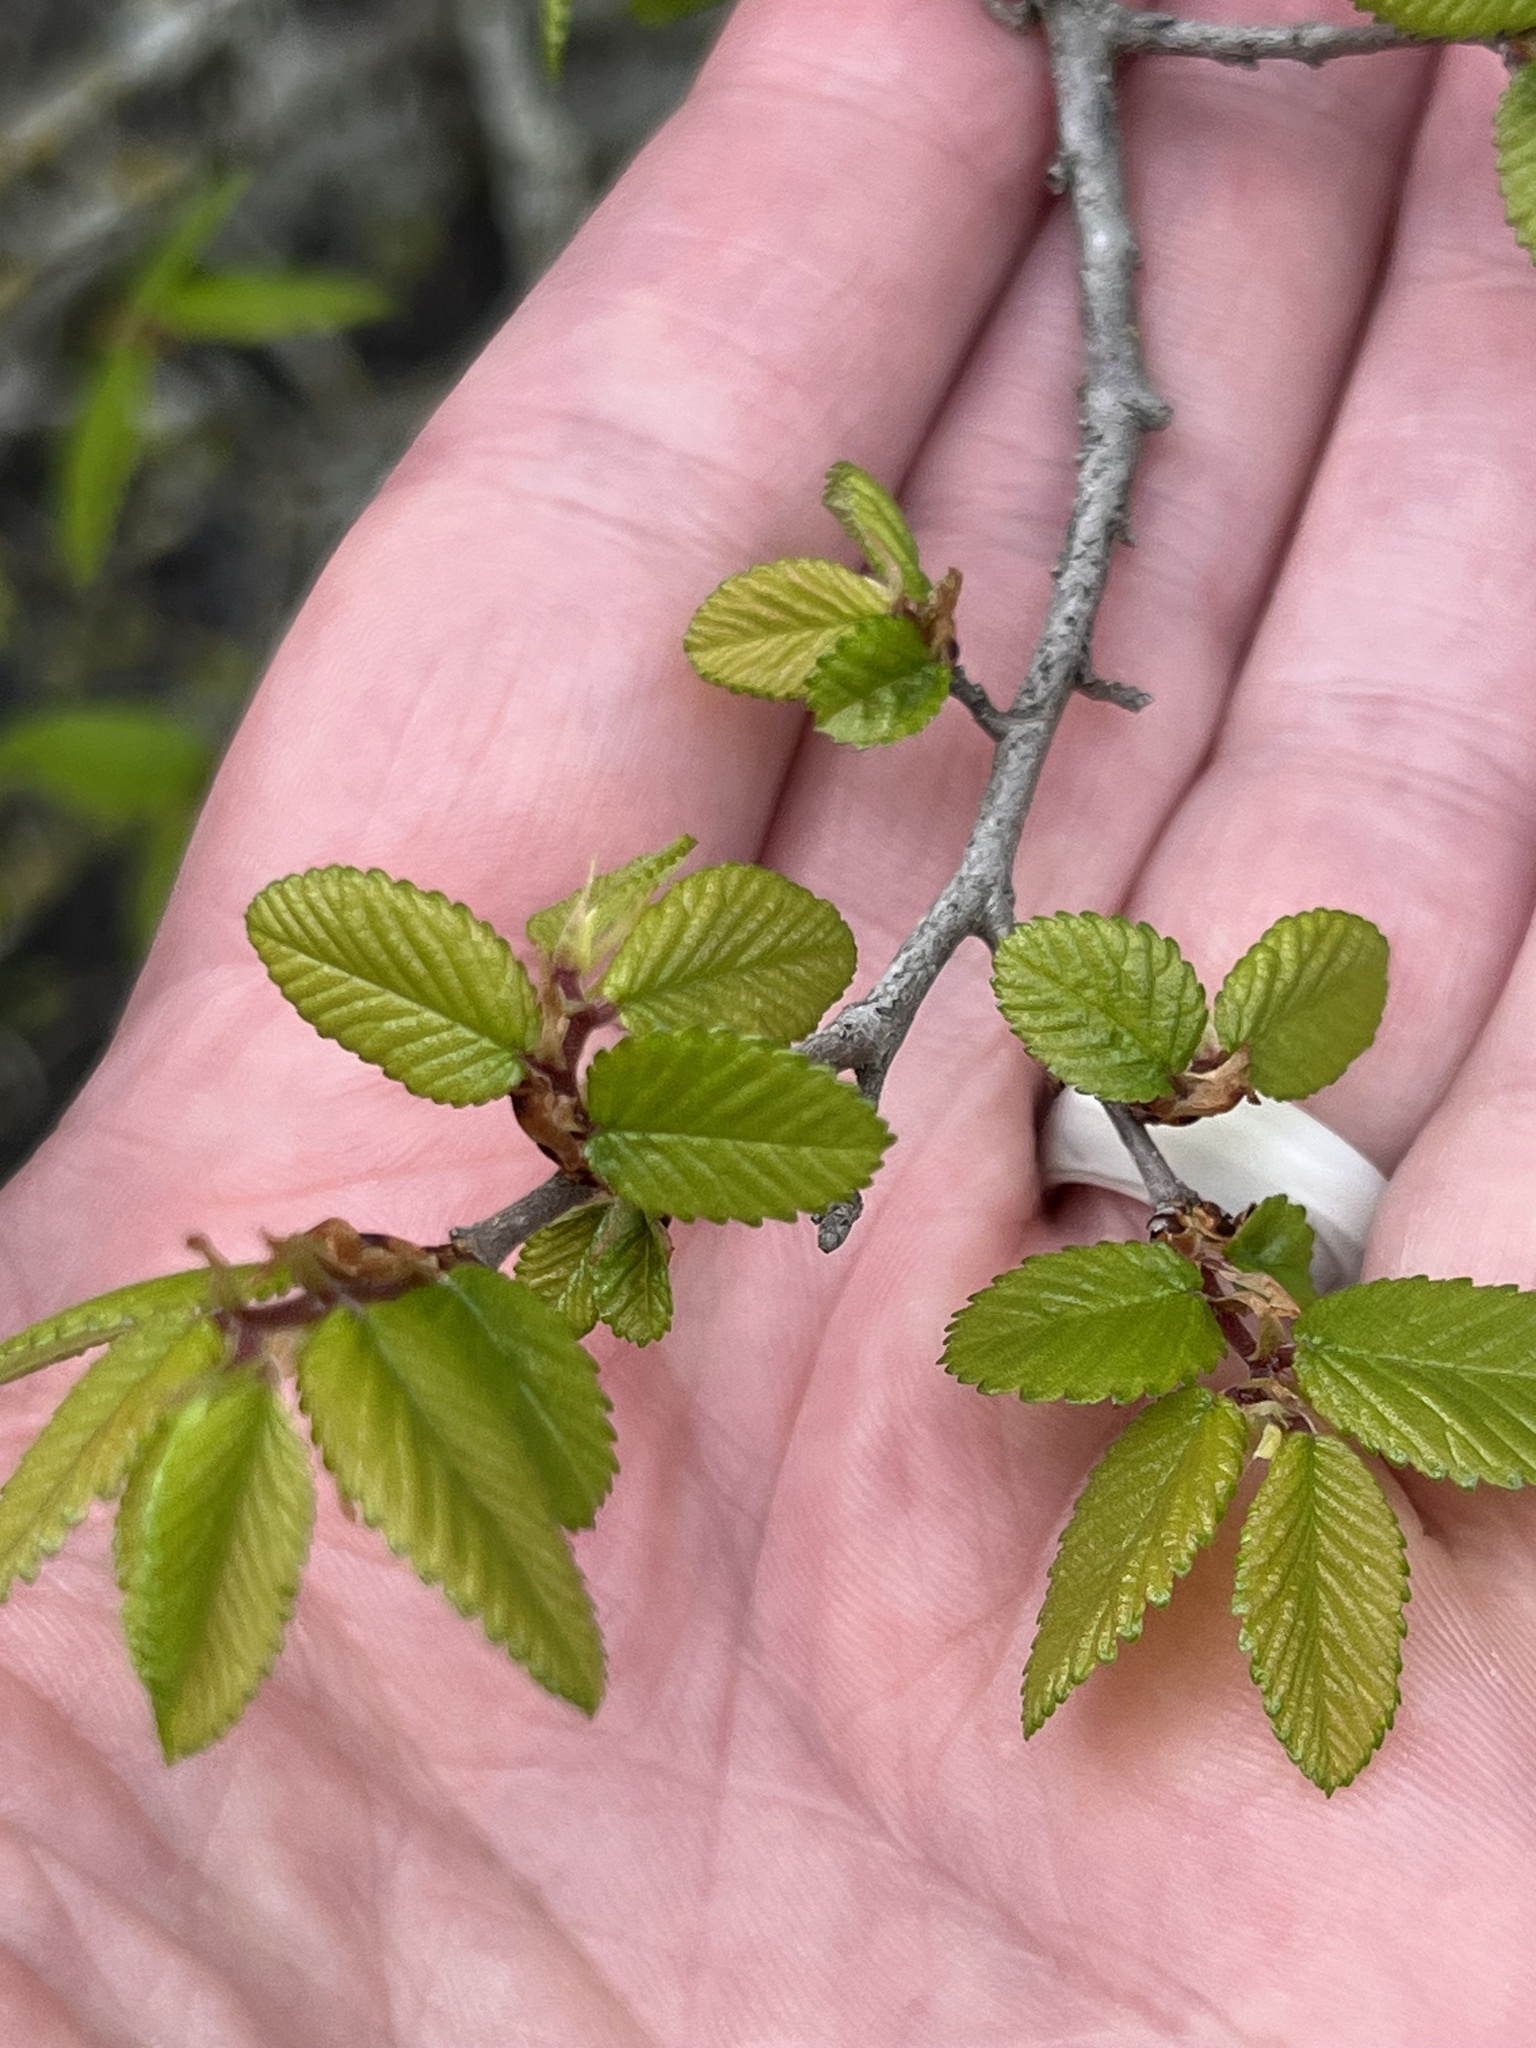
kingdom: Plantae
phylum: Tracheophyta
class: Magnoliopsida
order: Rosales
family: Ulmaceae
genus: Ulmus
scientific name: Ulmus crassifolia
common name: Basket elm
